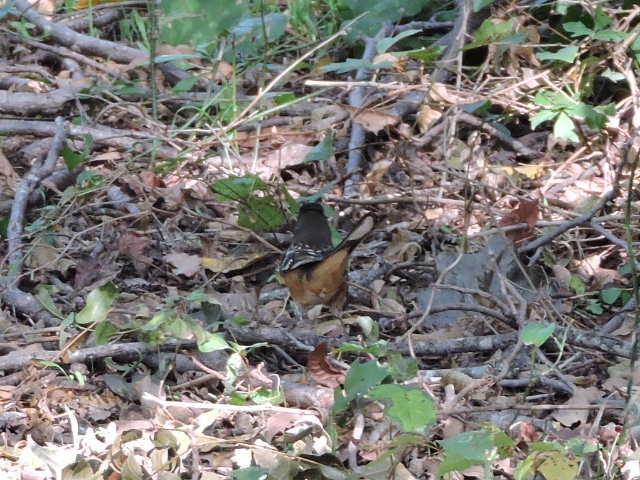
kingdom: Animalia
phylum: Chordata
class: Aves
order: Passeriformes
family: Passerellidae
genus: Pipilo
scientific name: Pipilo maculatus
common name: Spotted towhee
